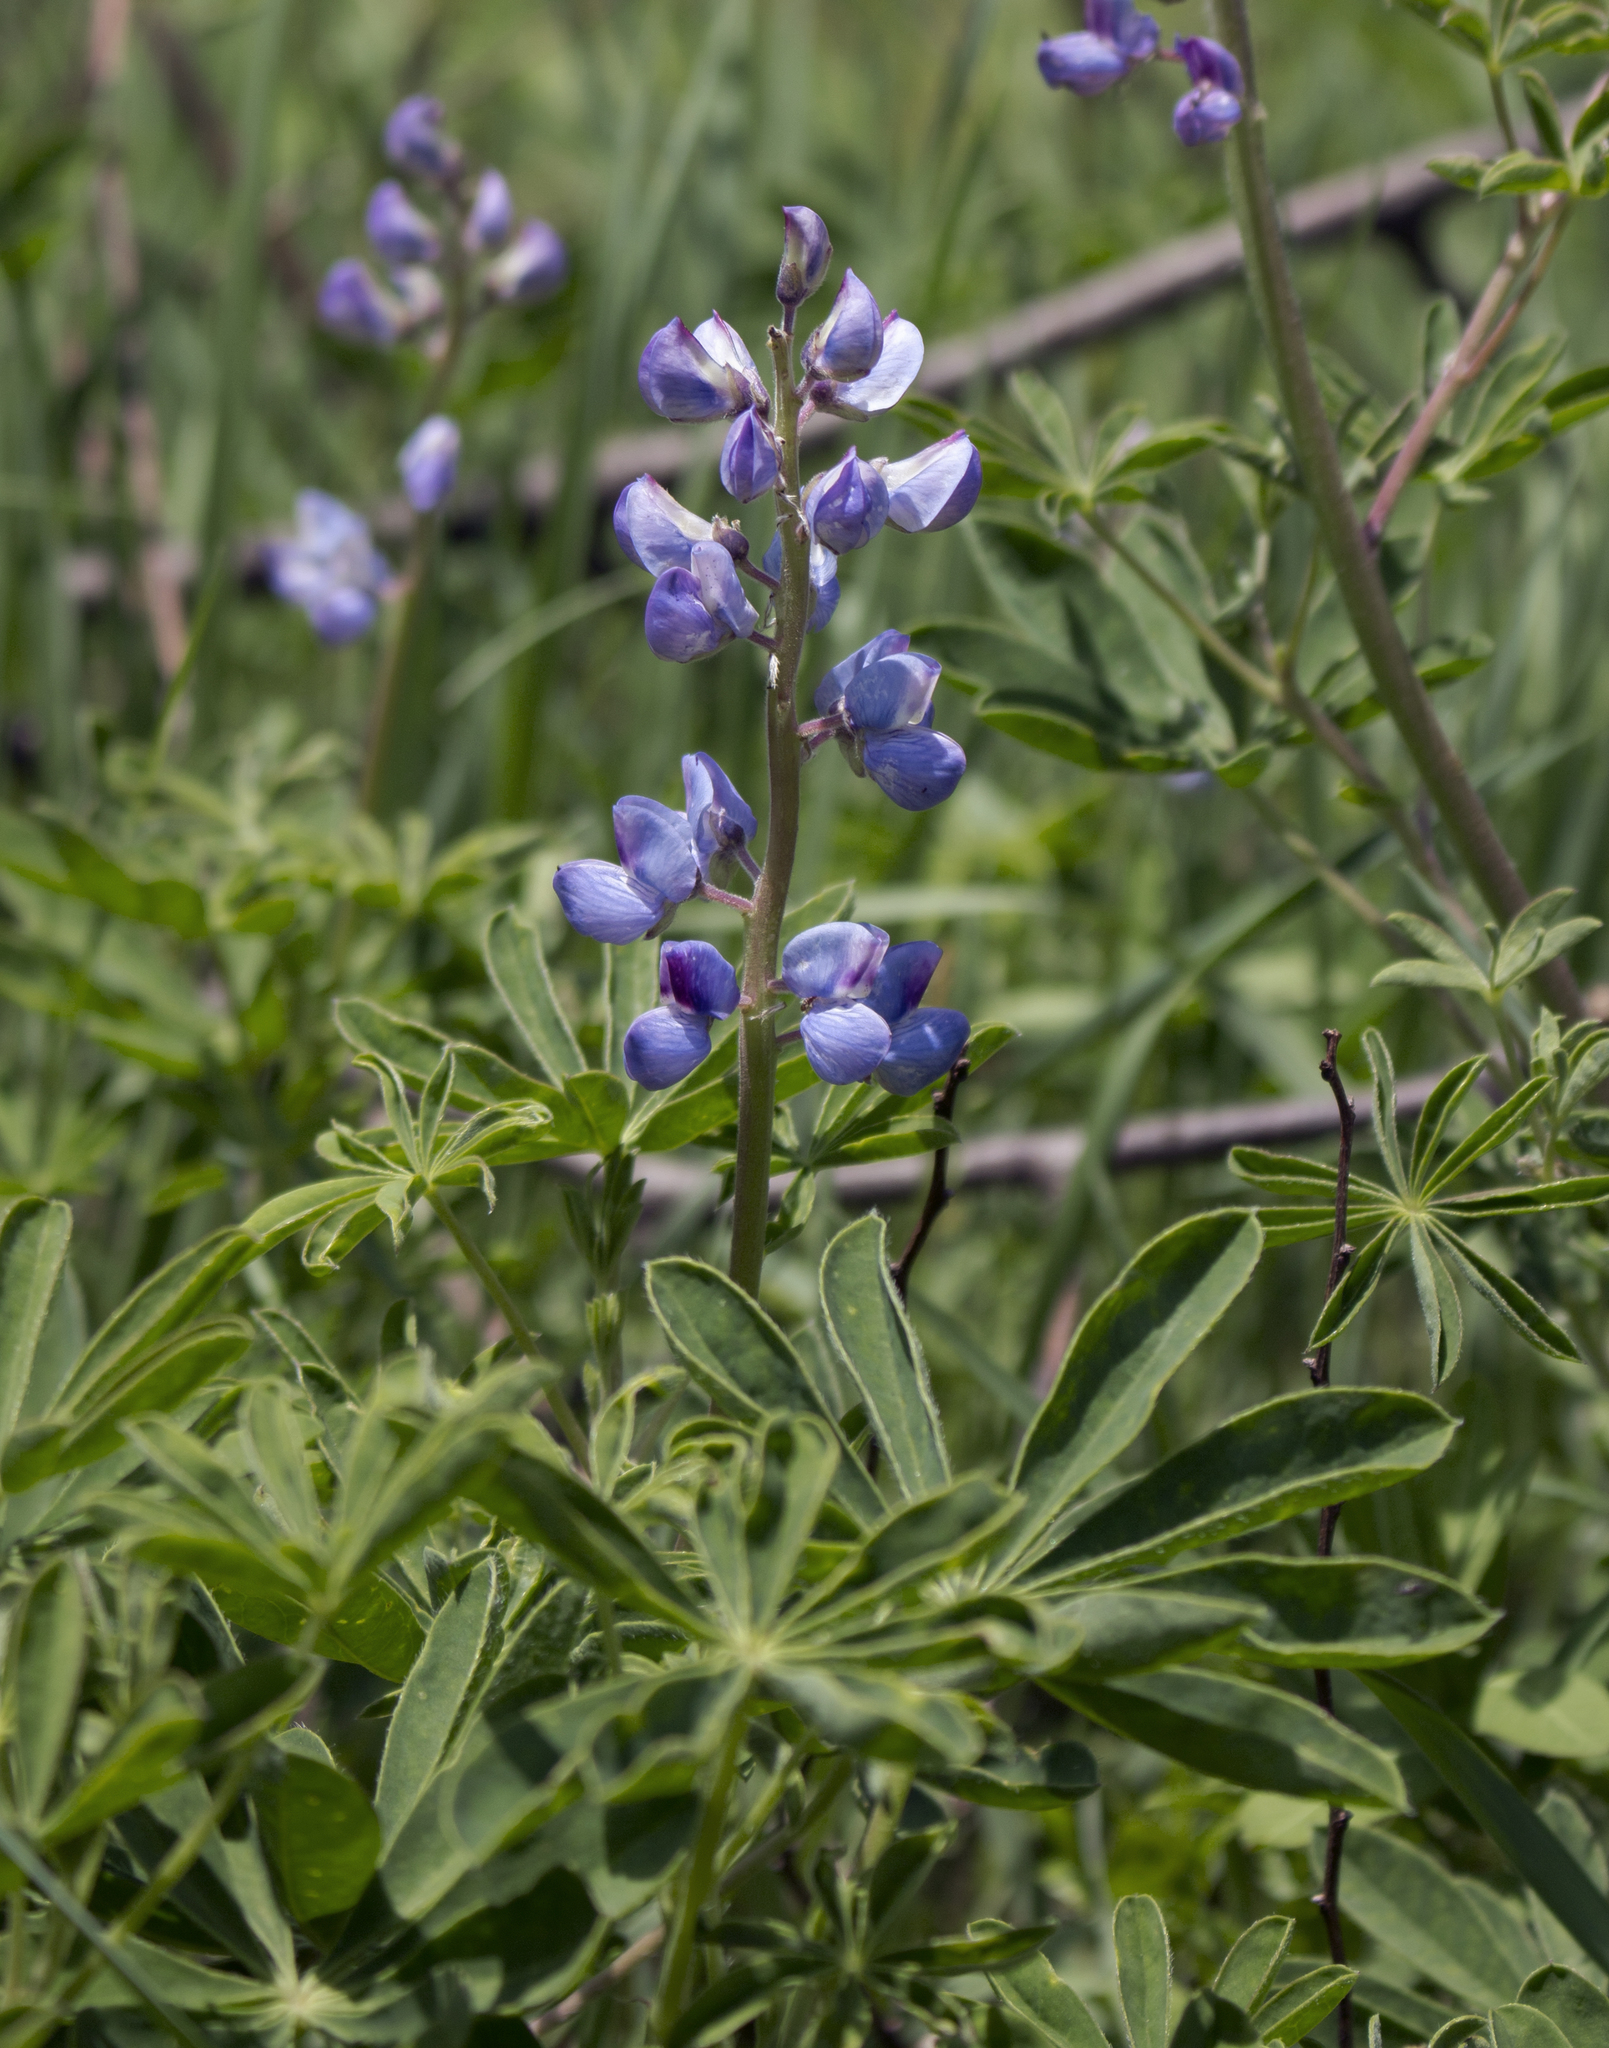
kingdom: Plantae
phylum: Tracheophyta
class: Magnoliopsida
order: Fabales
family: Fabaceae
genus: Lupinus
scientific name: Lupinus perennis
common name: Sundial lupine
